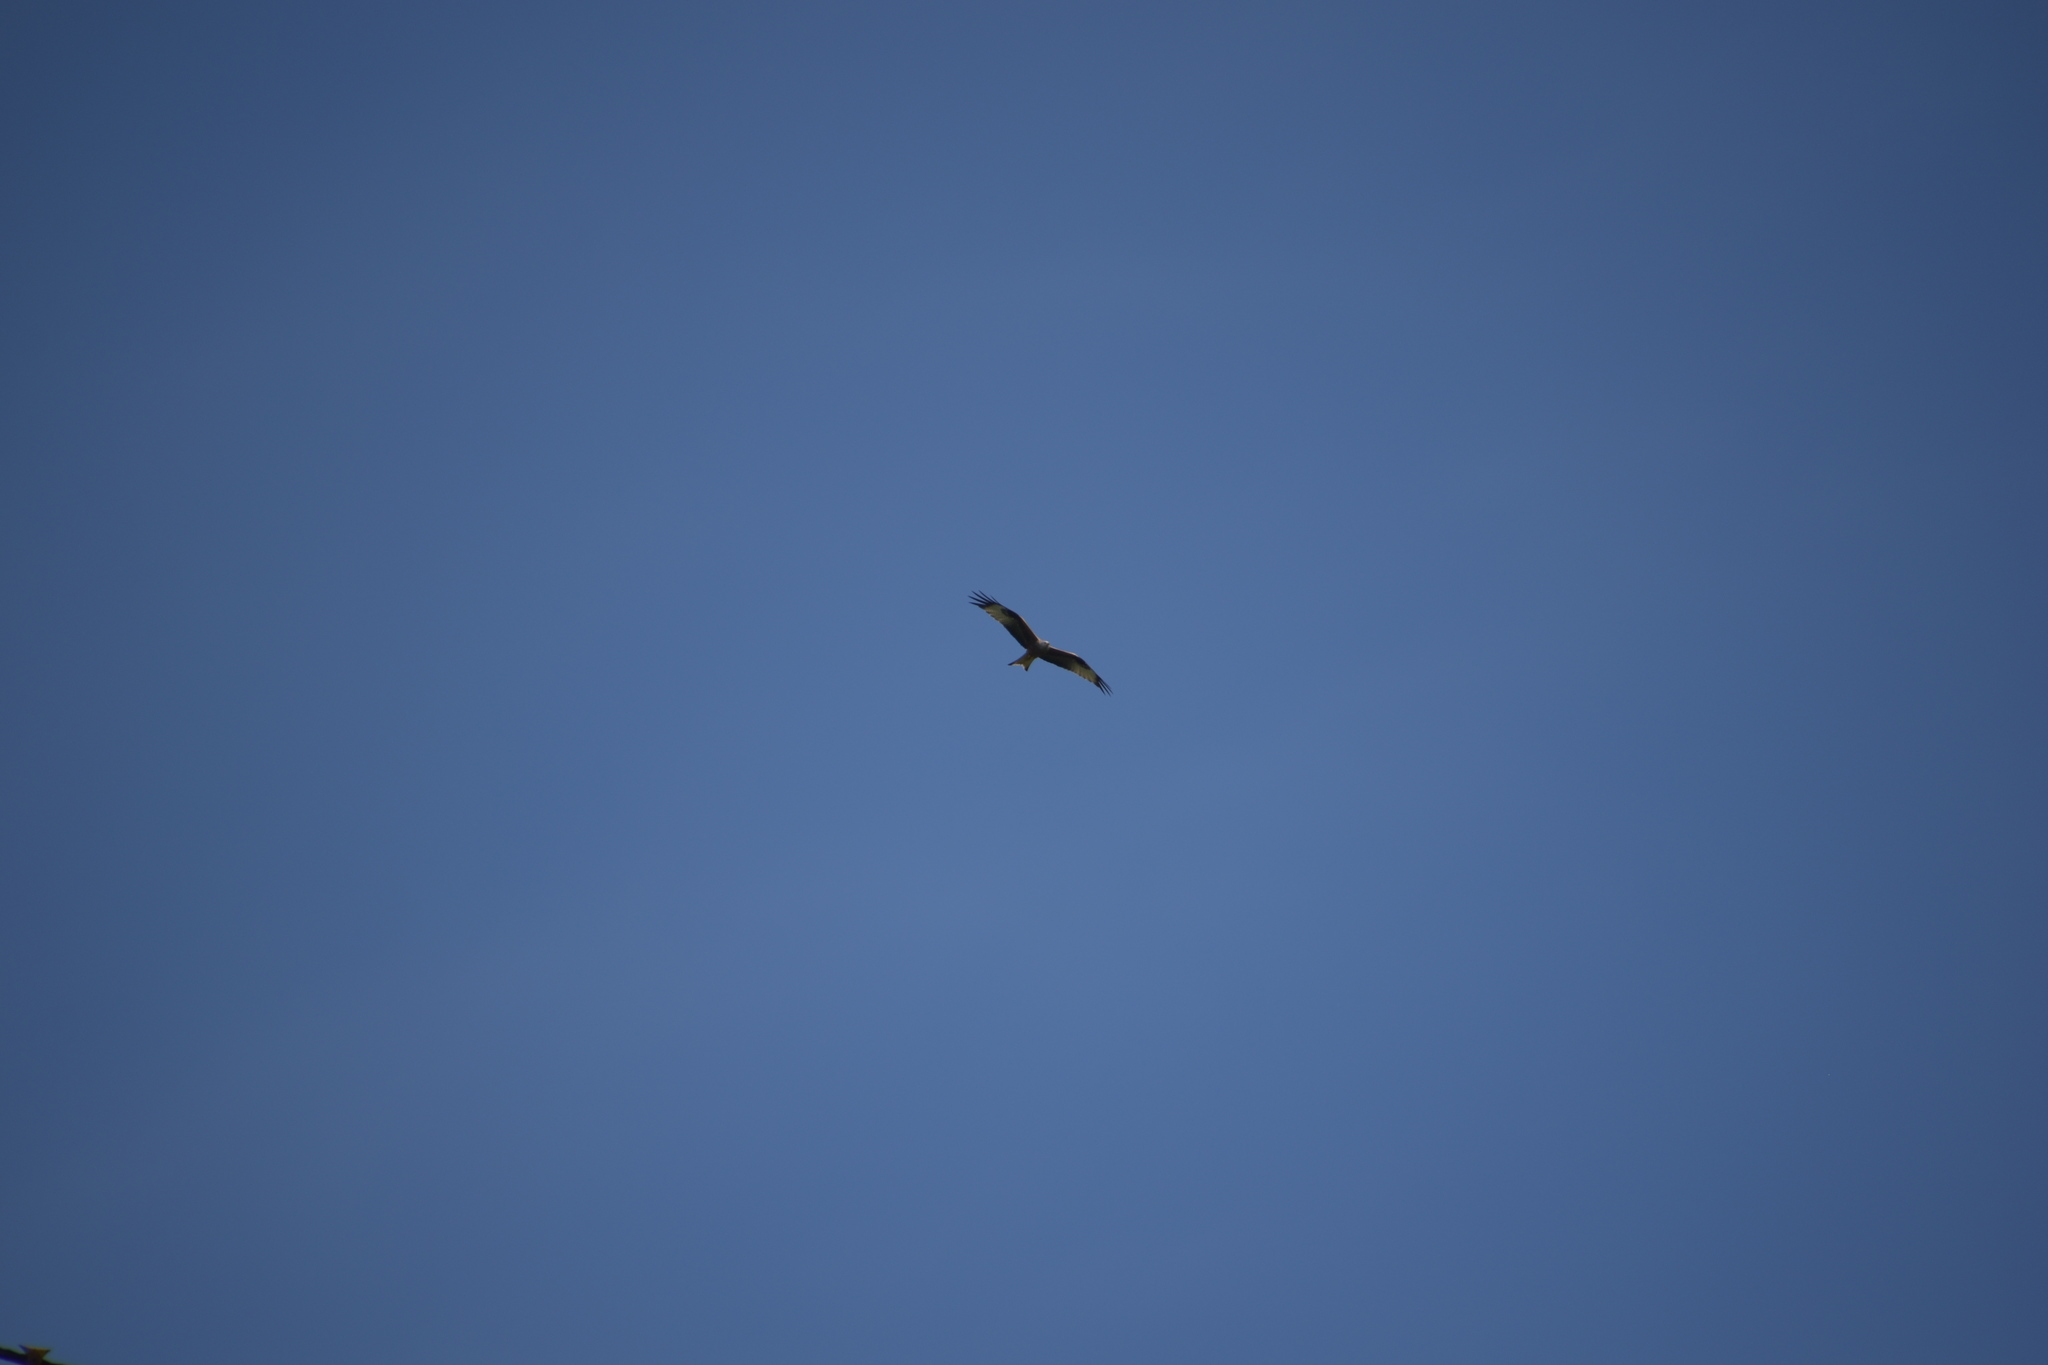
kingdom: Animalia
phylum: Chordata
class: Aves
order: Accipitriformes
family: Accipitridae
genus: Milvus
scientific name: Milvus milvus
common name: Red kite
